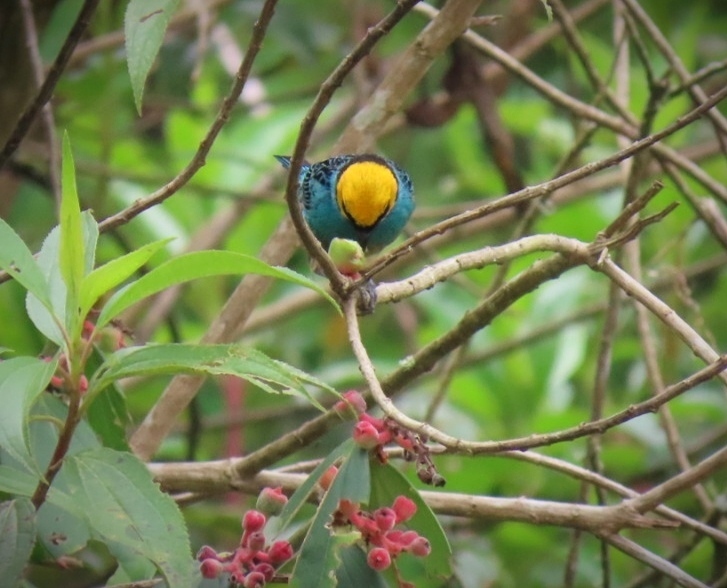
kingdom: Animalia
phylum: Chordata
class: Aves
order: Passeriformes
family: Thraupidae
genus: Tangara
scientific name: Tangara xanthocephala
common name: Saffron-crowned tanager
